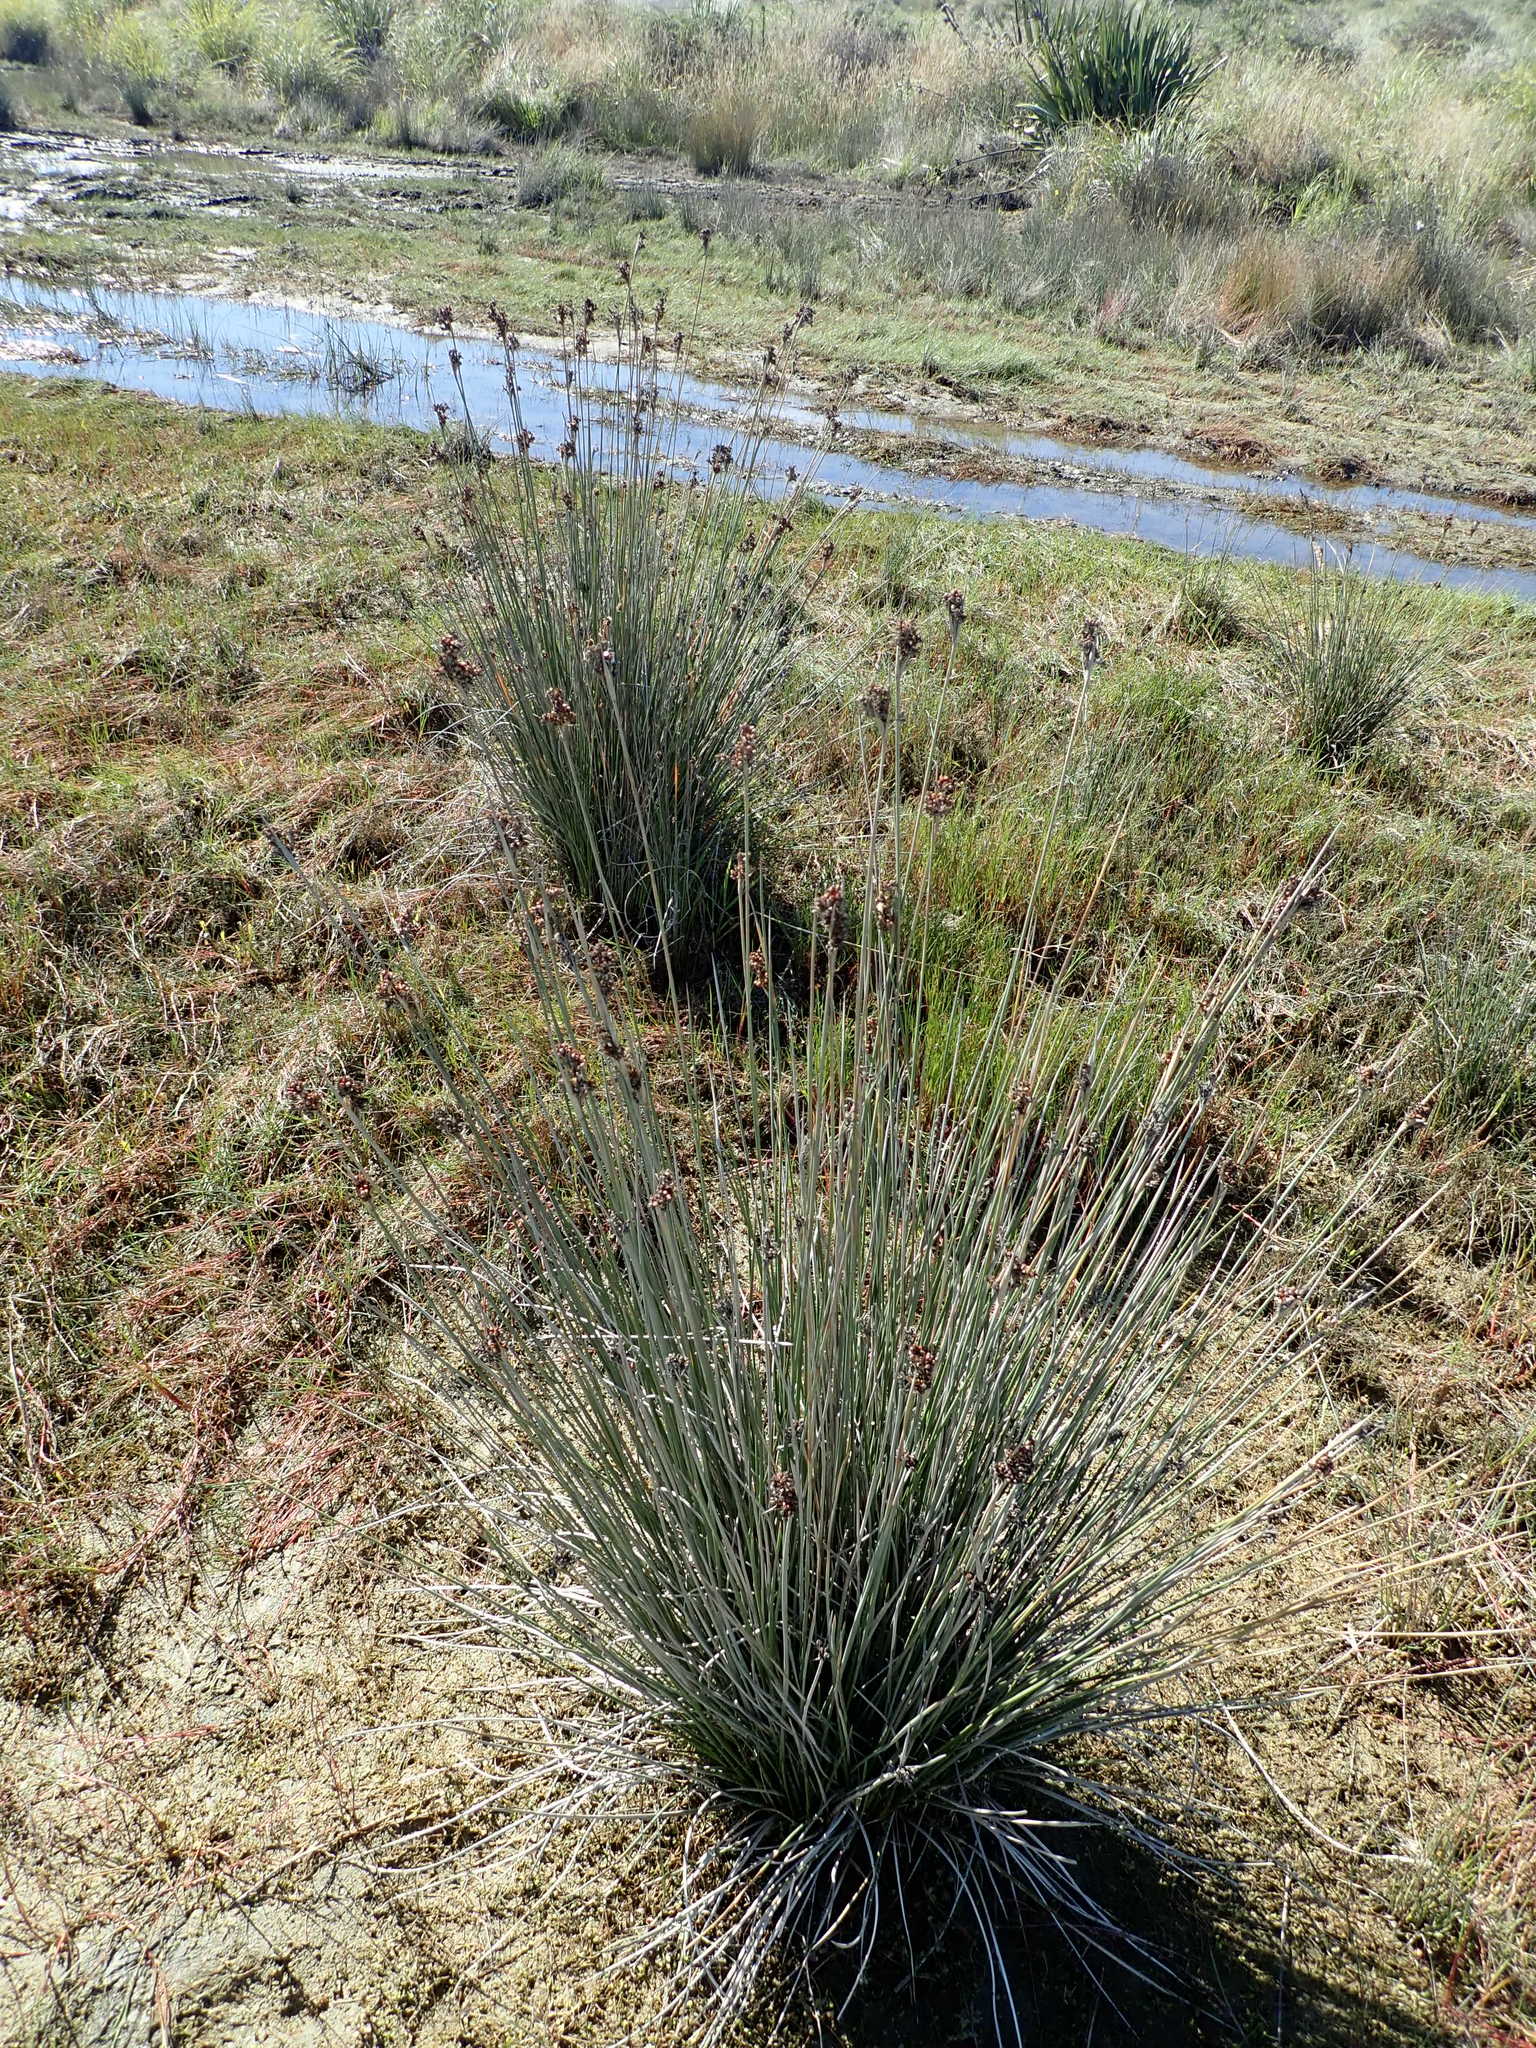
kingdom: Plantae
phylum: Tracheophyta
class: Liliopsida
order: Poales
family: Juncaceae
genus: Juncus
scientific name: Juncus acutus
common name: Sharp rush
